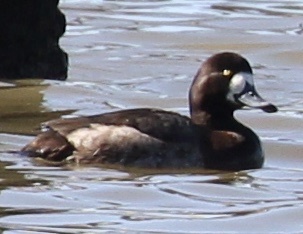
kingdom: Animalia
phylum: Chordata
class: Aves
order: Anseriformes
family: Anatidae
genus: Aythya
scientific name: Aythya marila
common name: Greater scaup
